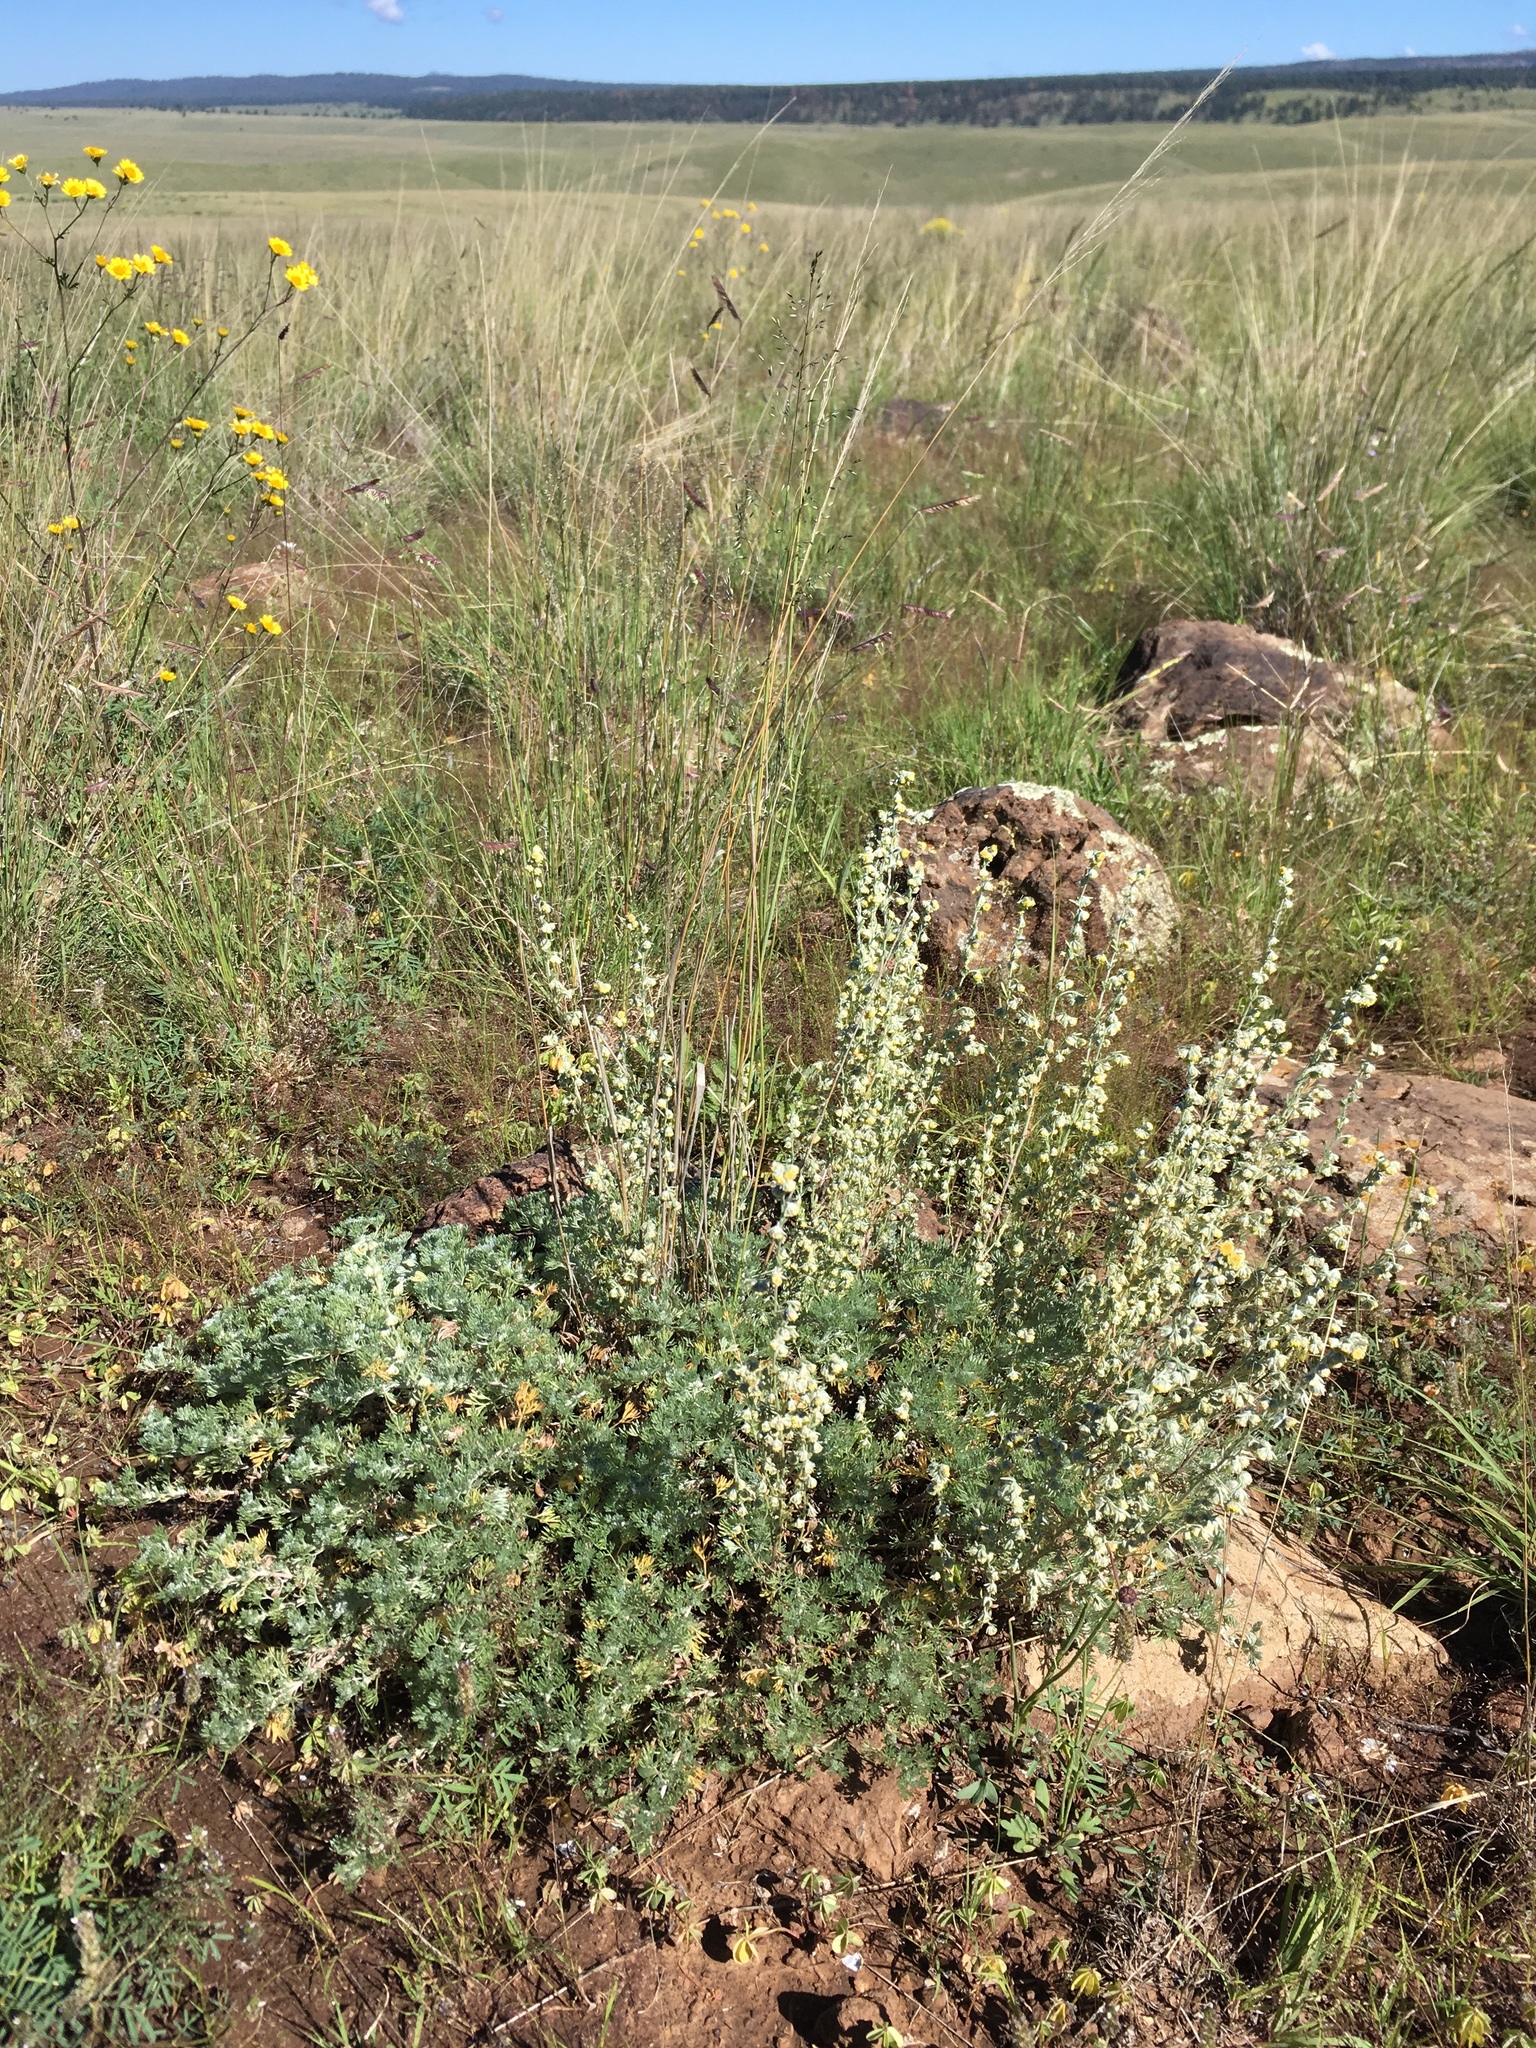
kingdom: Plantae
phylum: Tracheophyta
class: Magnoliopsida
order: Asterales
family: Asteraceae
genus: Artemisia
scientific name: Artemisia frigida
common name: Prairie sagewort
